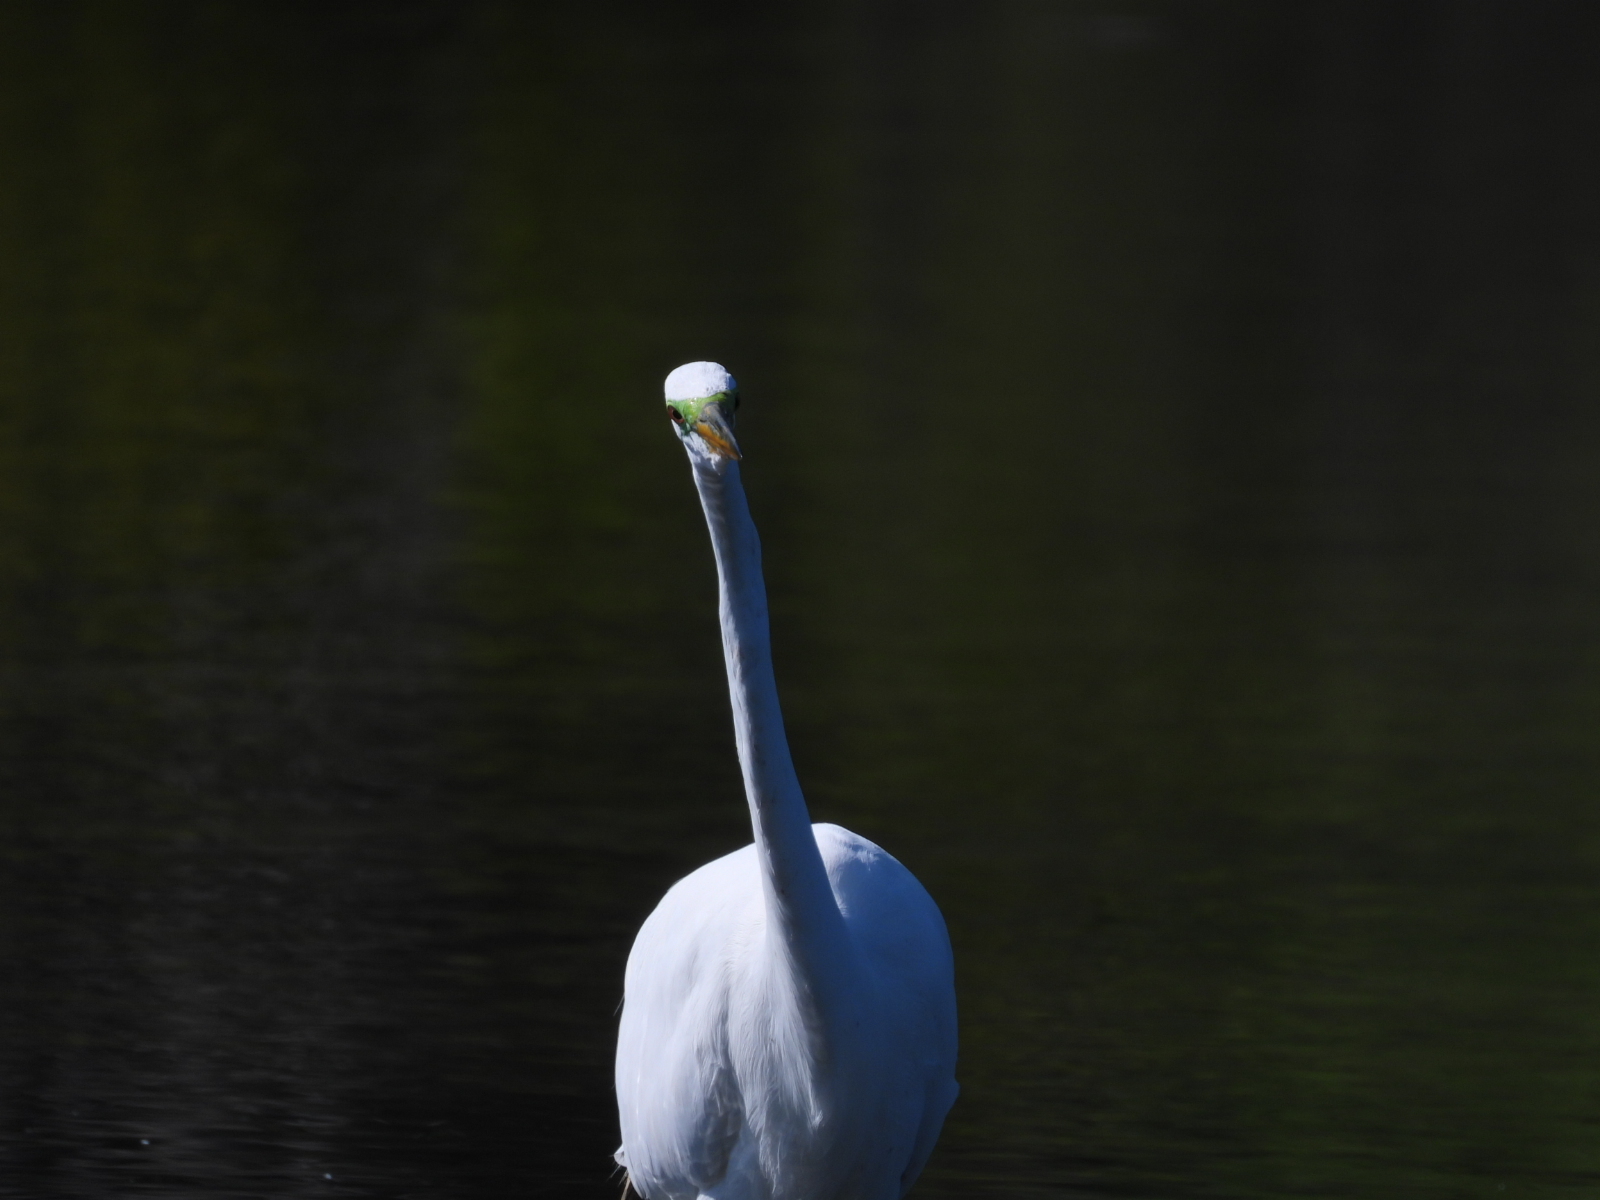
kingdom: Animalia
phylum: Chordata
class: Aves
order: Pelecaniformes
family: Ardeidae
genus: Ardea
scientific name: Ardea herodias
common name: Great blue heron
